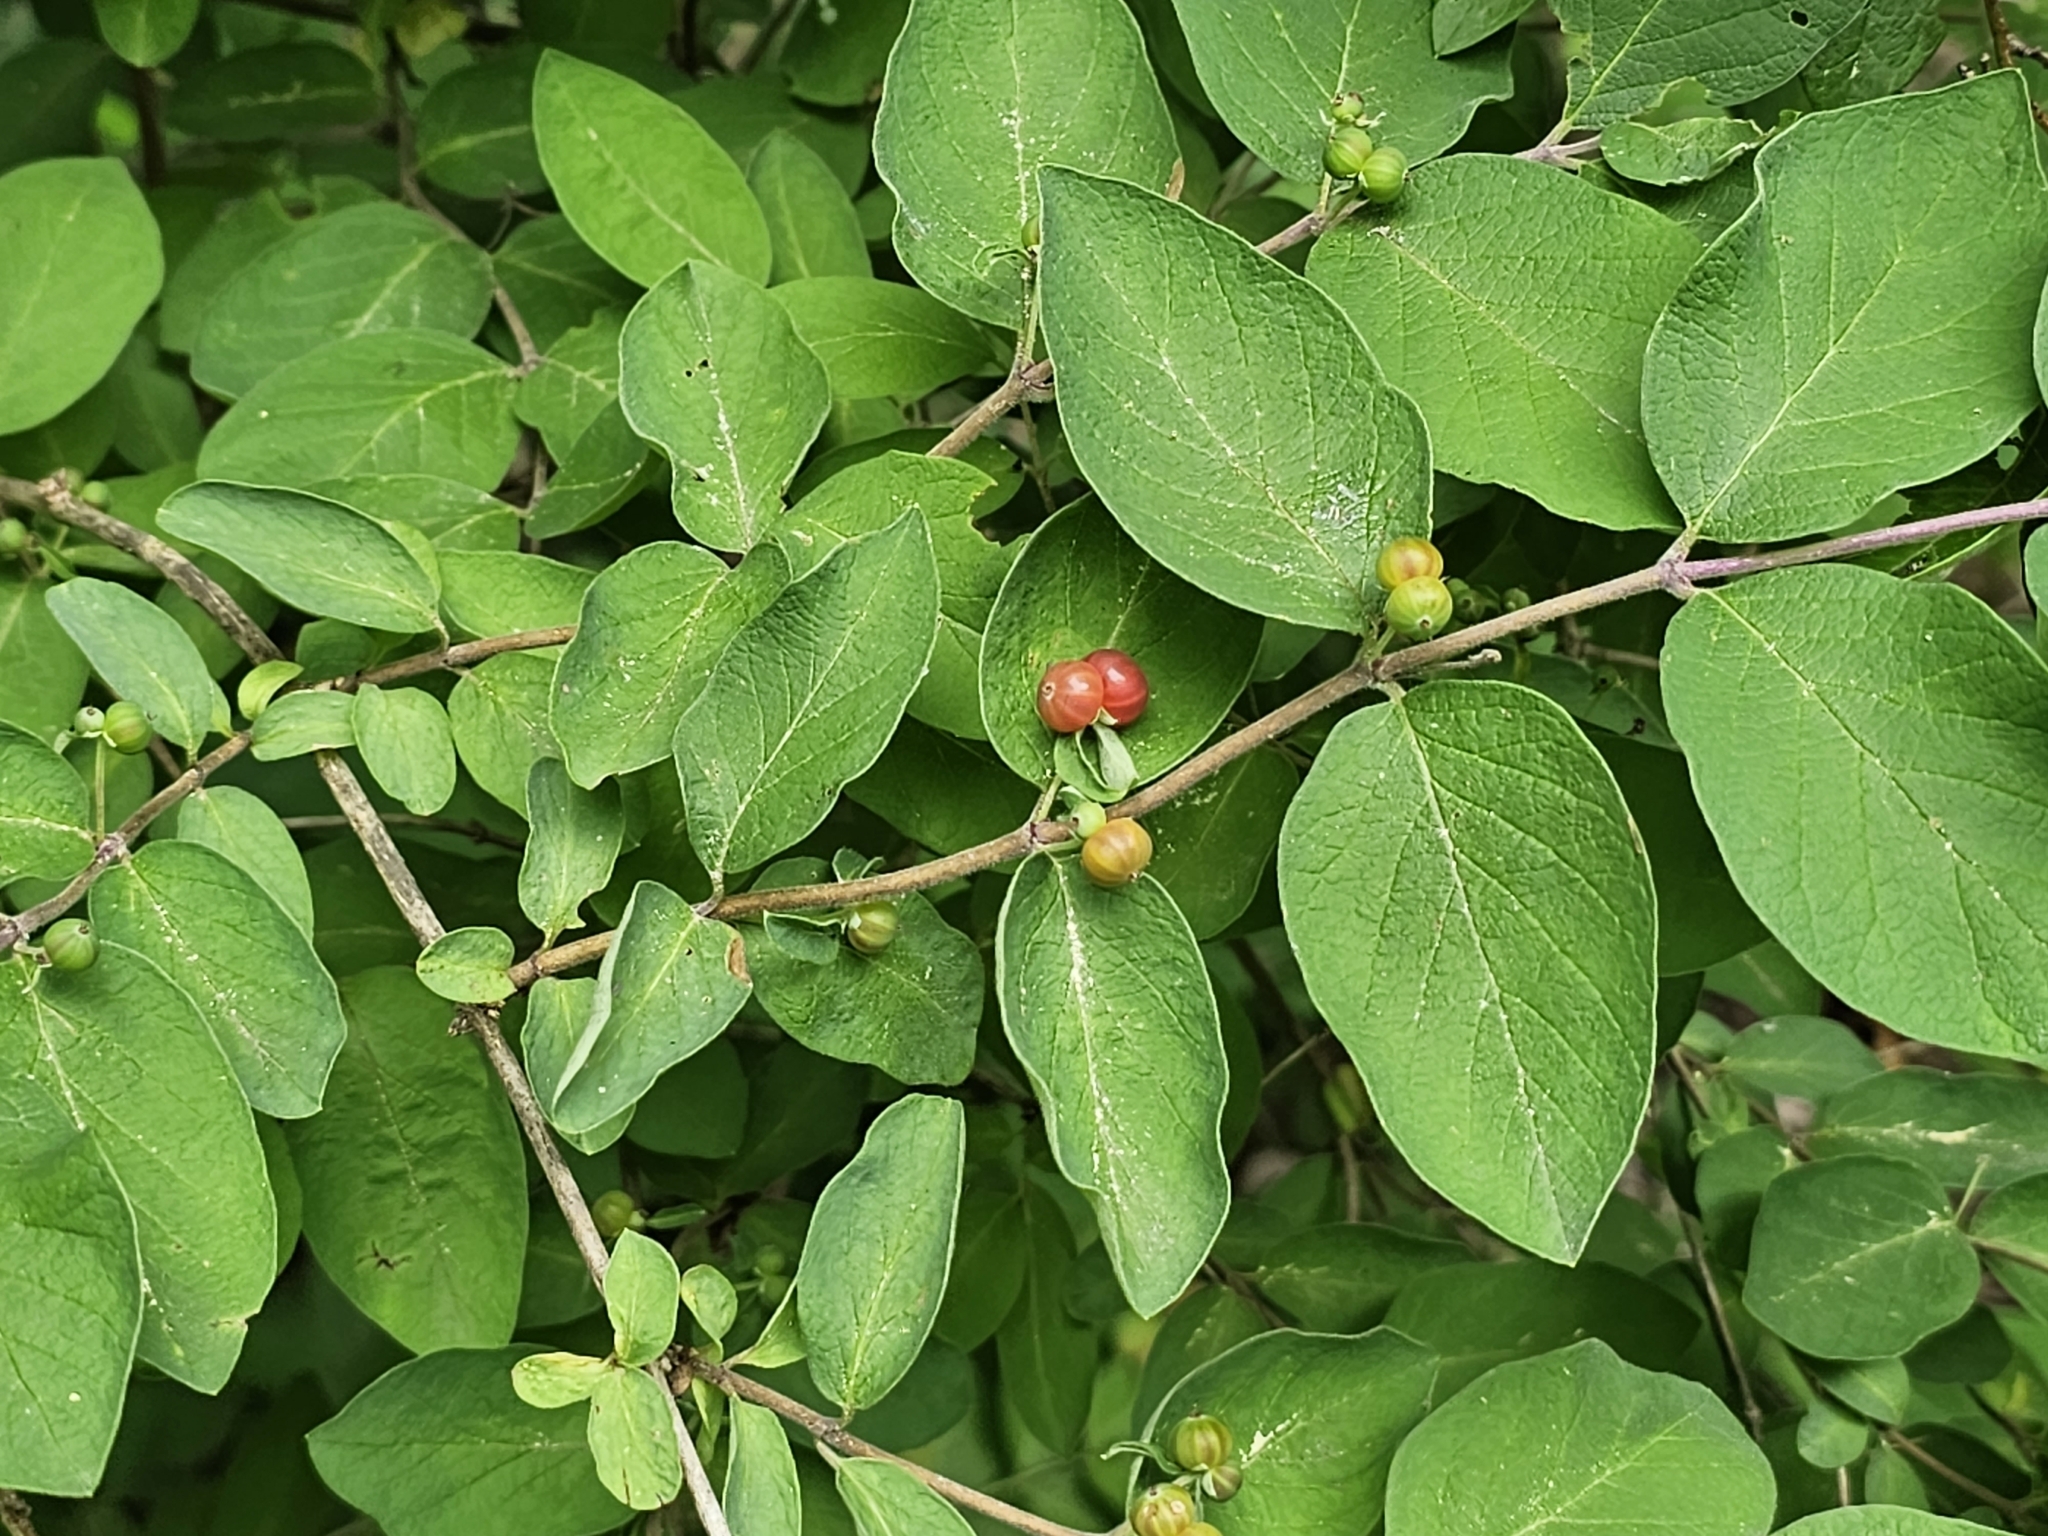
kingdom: Plantae
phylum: Tracheophyta
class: Magnoliopsida
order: Dipsacales
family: Caprifoliaceae
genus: Lonicera
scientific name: Lonicera morrowii
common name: Morrow's honeysuckle
